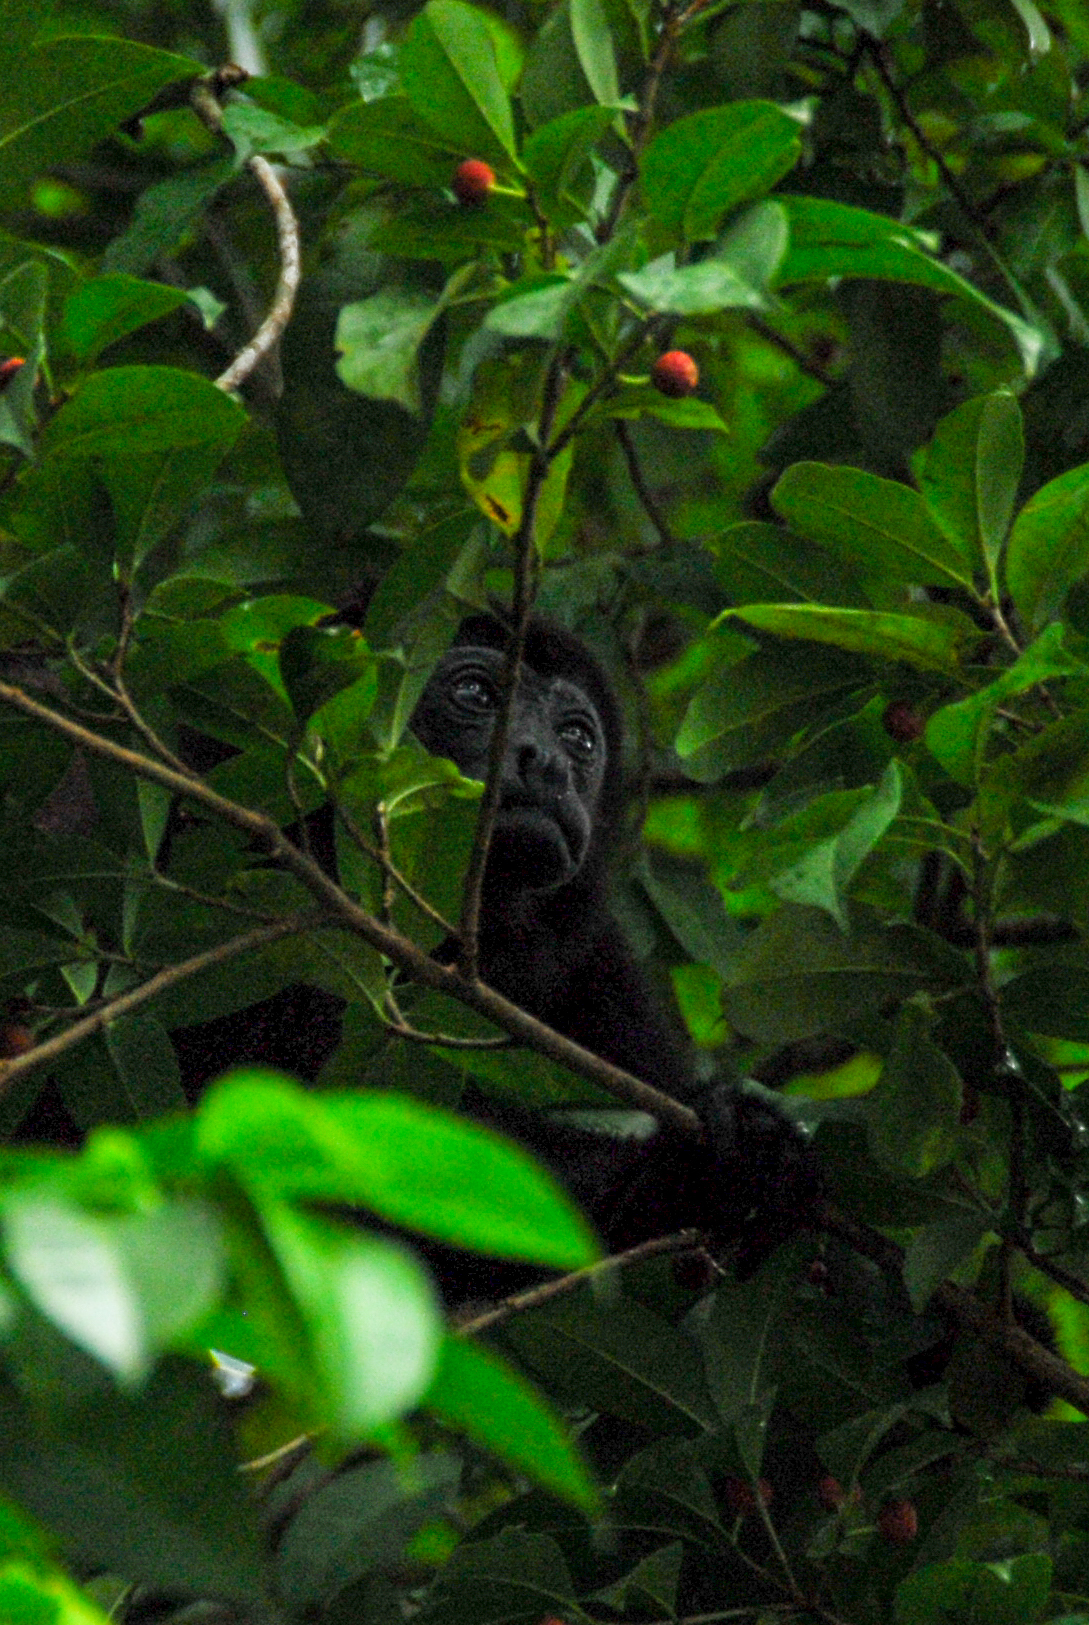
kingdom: Animalia
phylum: Chordata
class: Mammalia
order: Primates
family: Atelidae
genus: Alouatta
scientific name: Alouatta palliata
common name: Mantled howler
